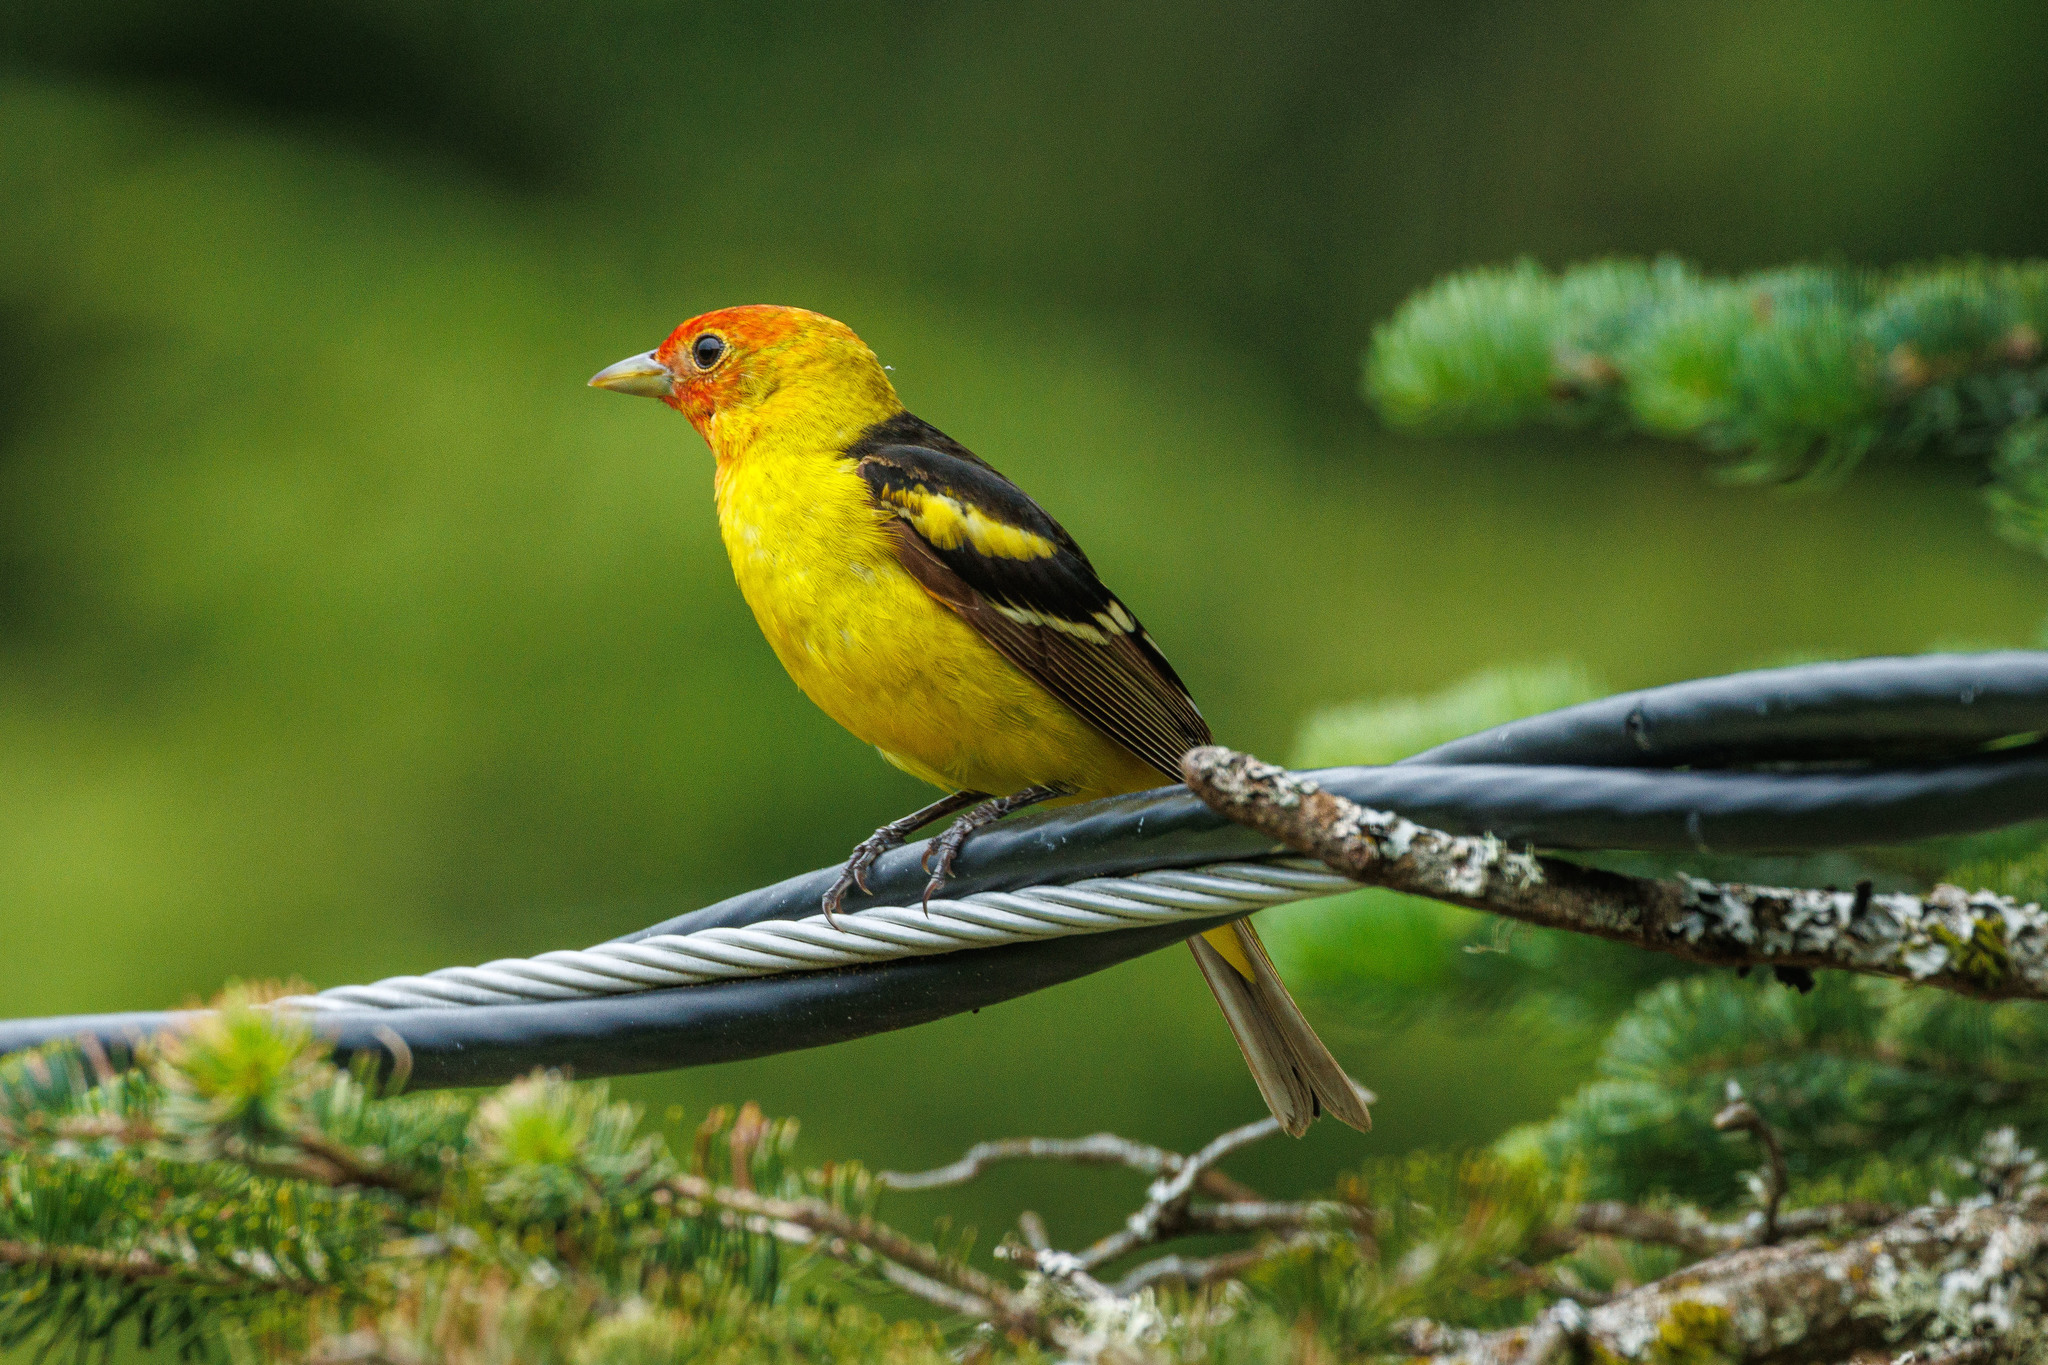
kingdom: Animalia
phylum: Chordata
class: Aves
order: Passeriformes
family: Cardinalidae
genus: Piranga
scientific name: Piranga ludoviciana
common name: Western tanager
